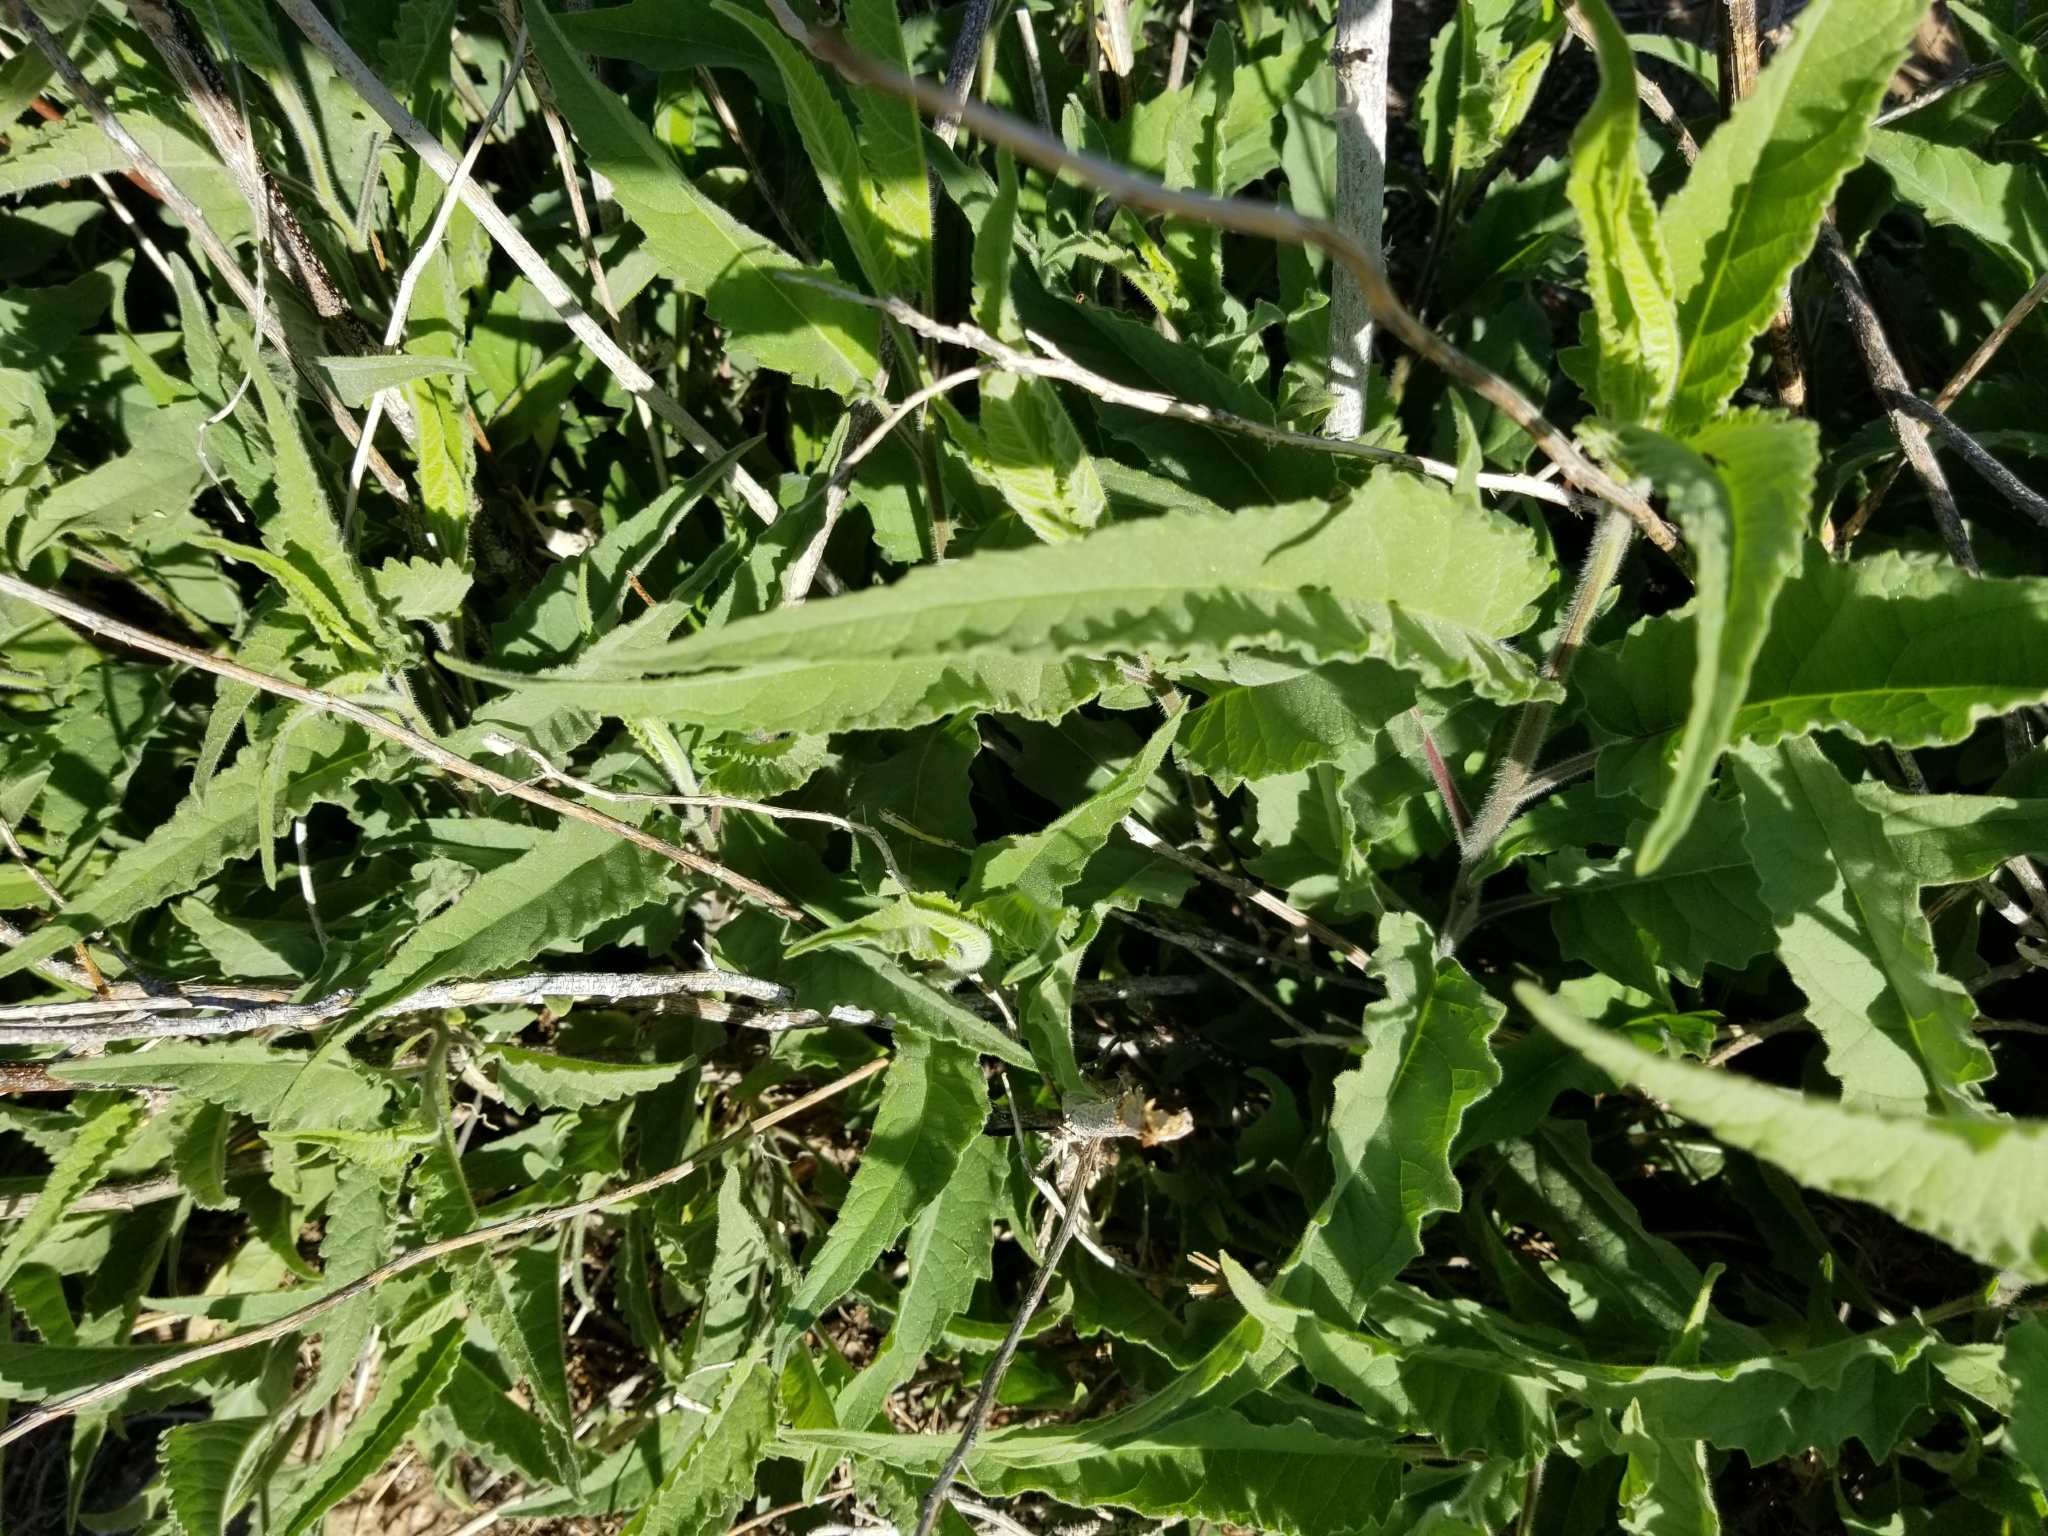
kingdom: Plantae
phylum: Tracheophyta
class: Magnoliopsida
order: Asterales
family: Asteraceae
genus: Ambrosia
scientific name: Ambrosia ambrosioides
